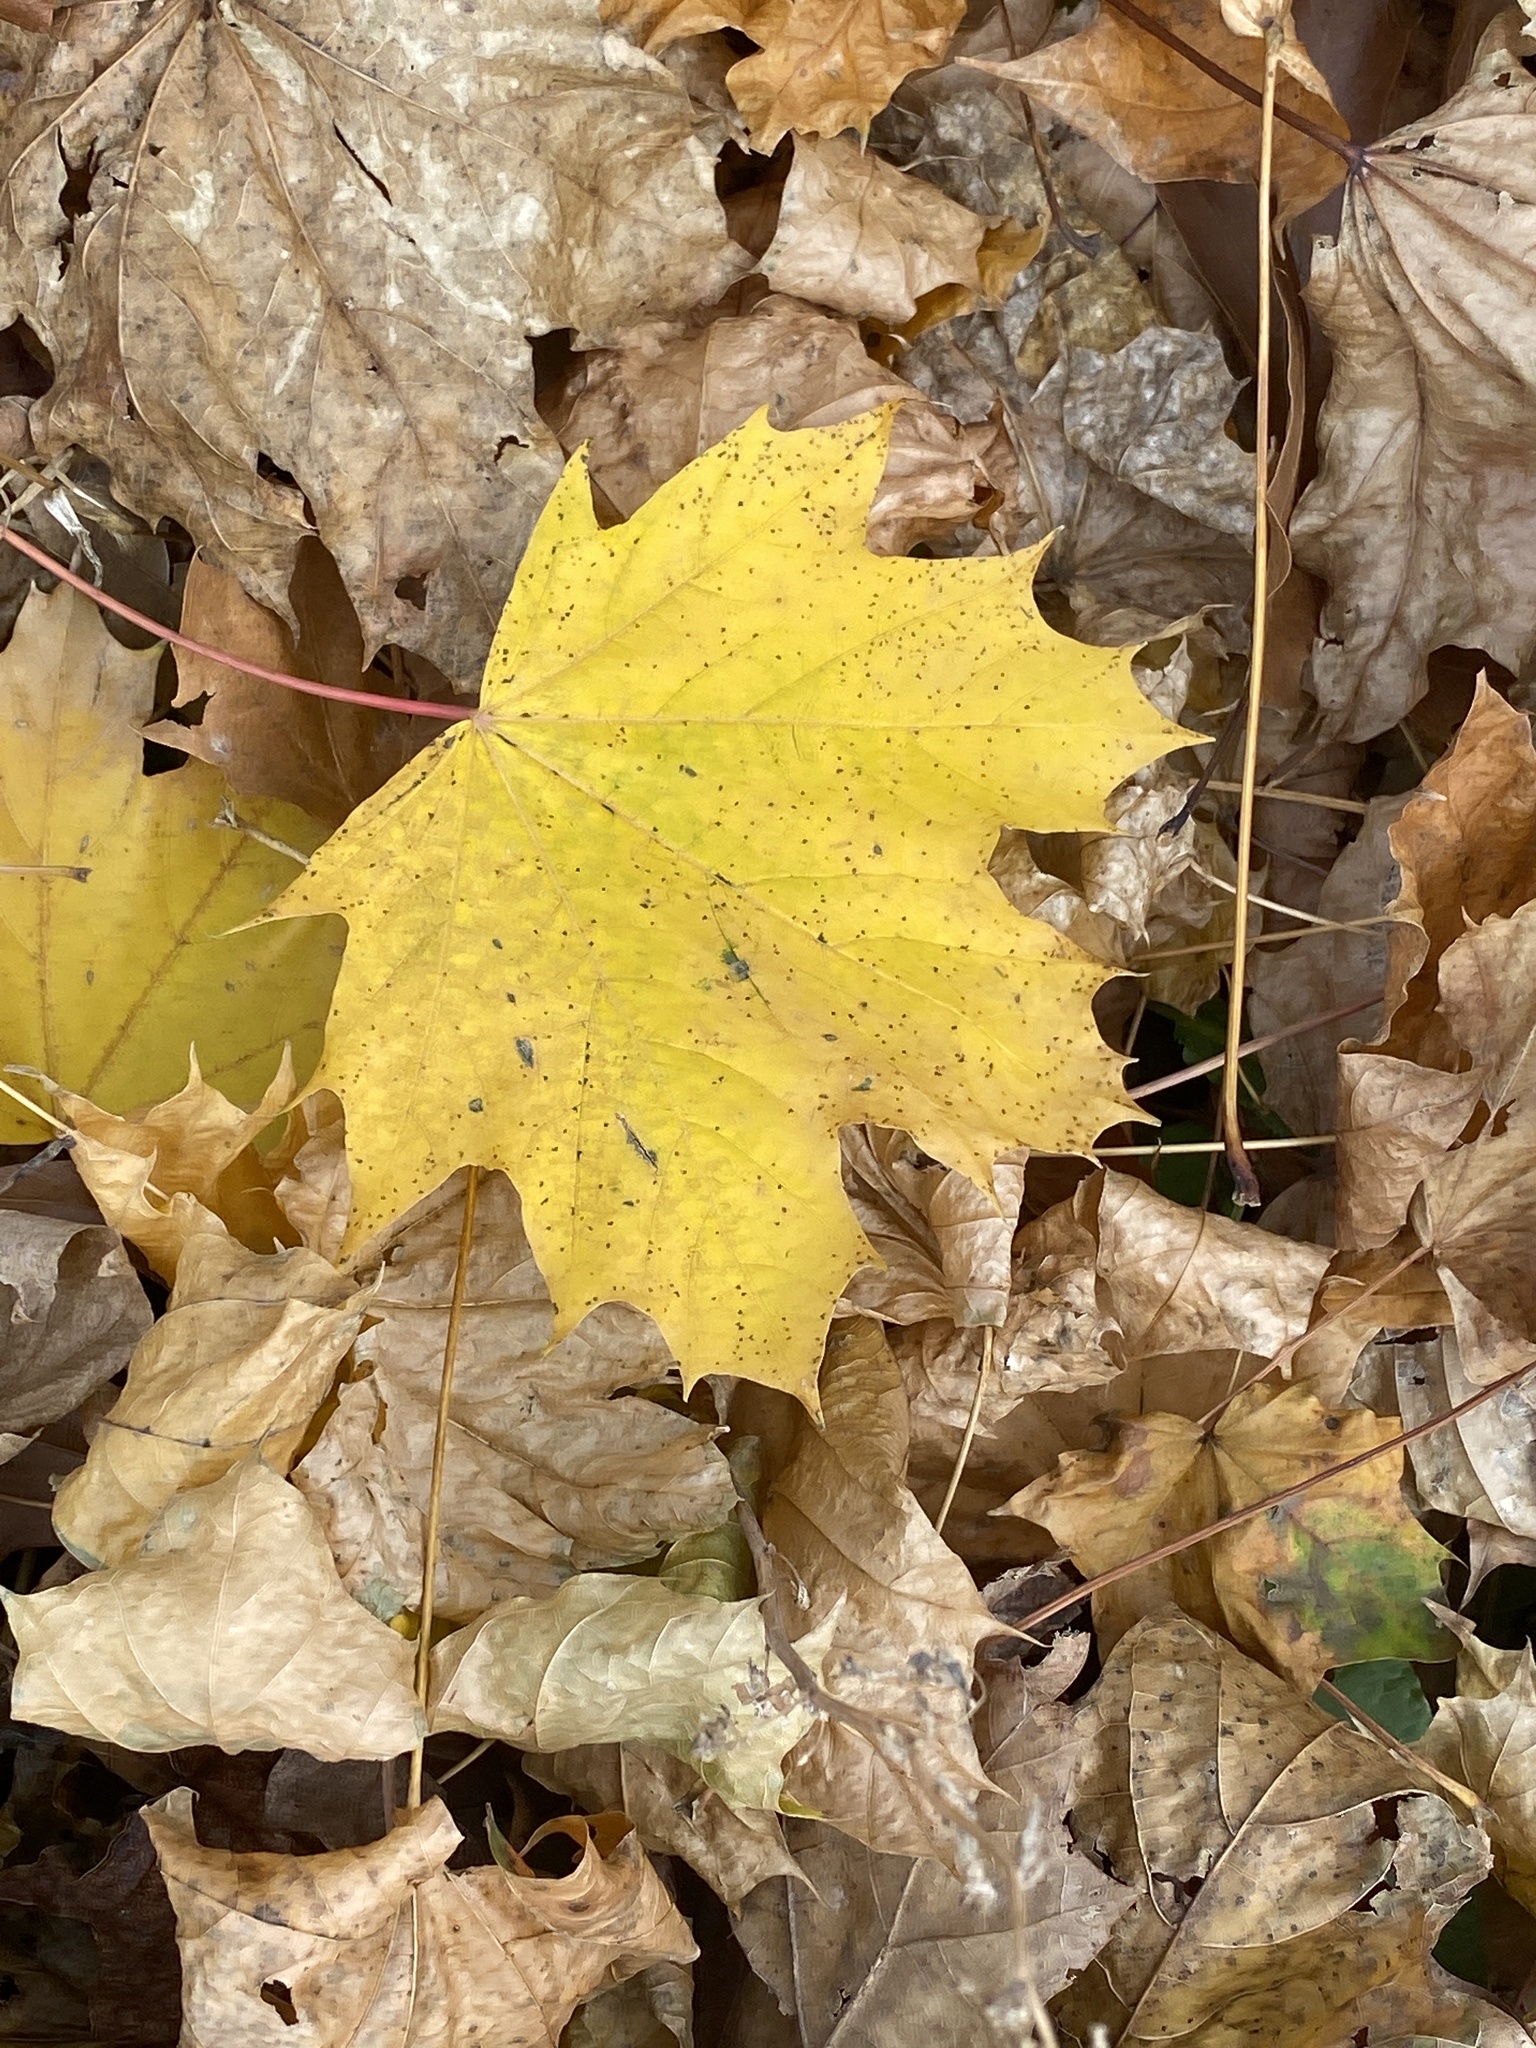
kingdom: Plantae
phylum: Tracheophyta
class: Magnoliopsida
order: Sapindales
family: Sapindaceae
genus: Acer
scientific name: Acer platanoides
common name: Norway maple
